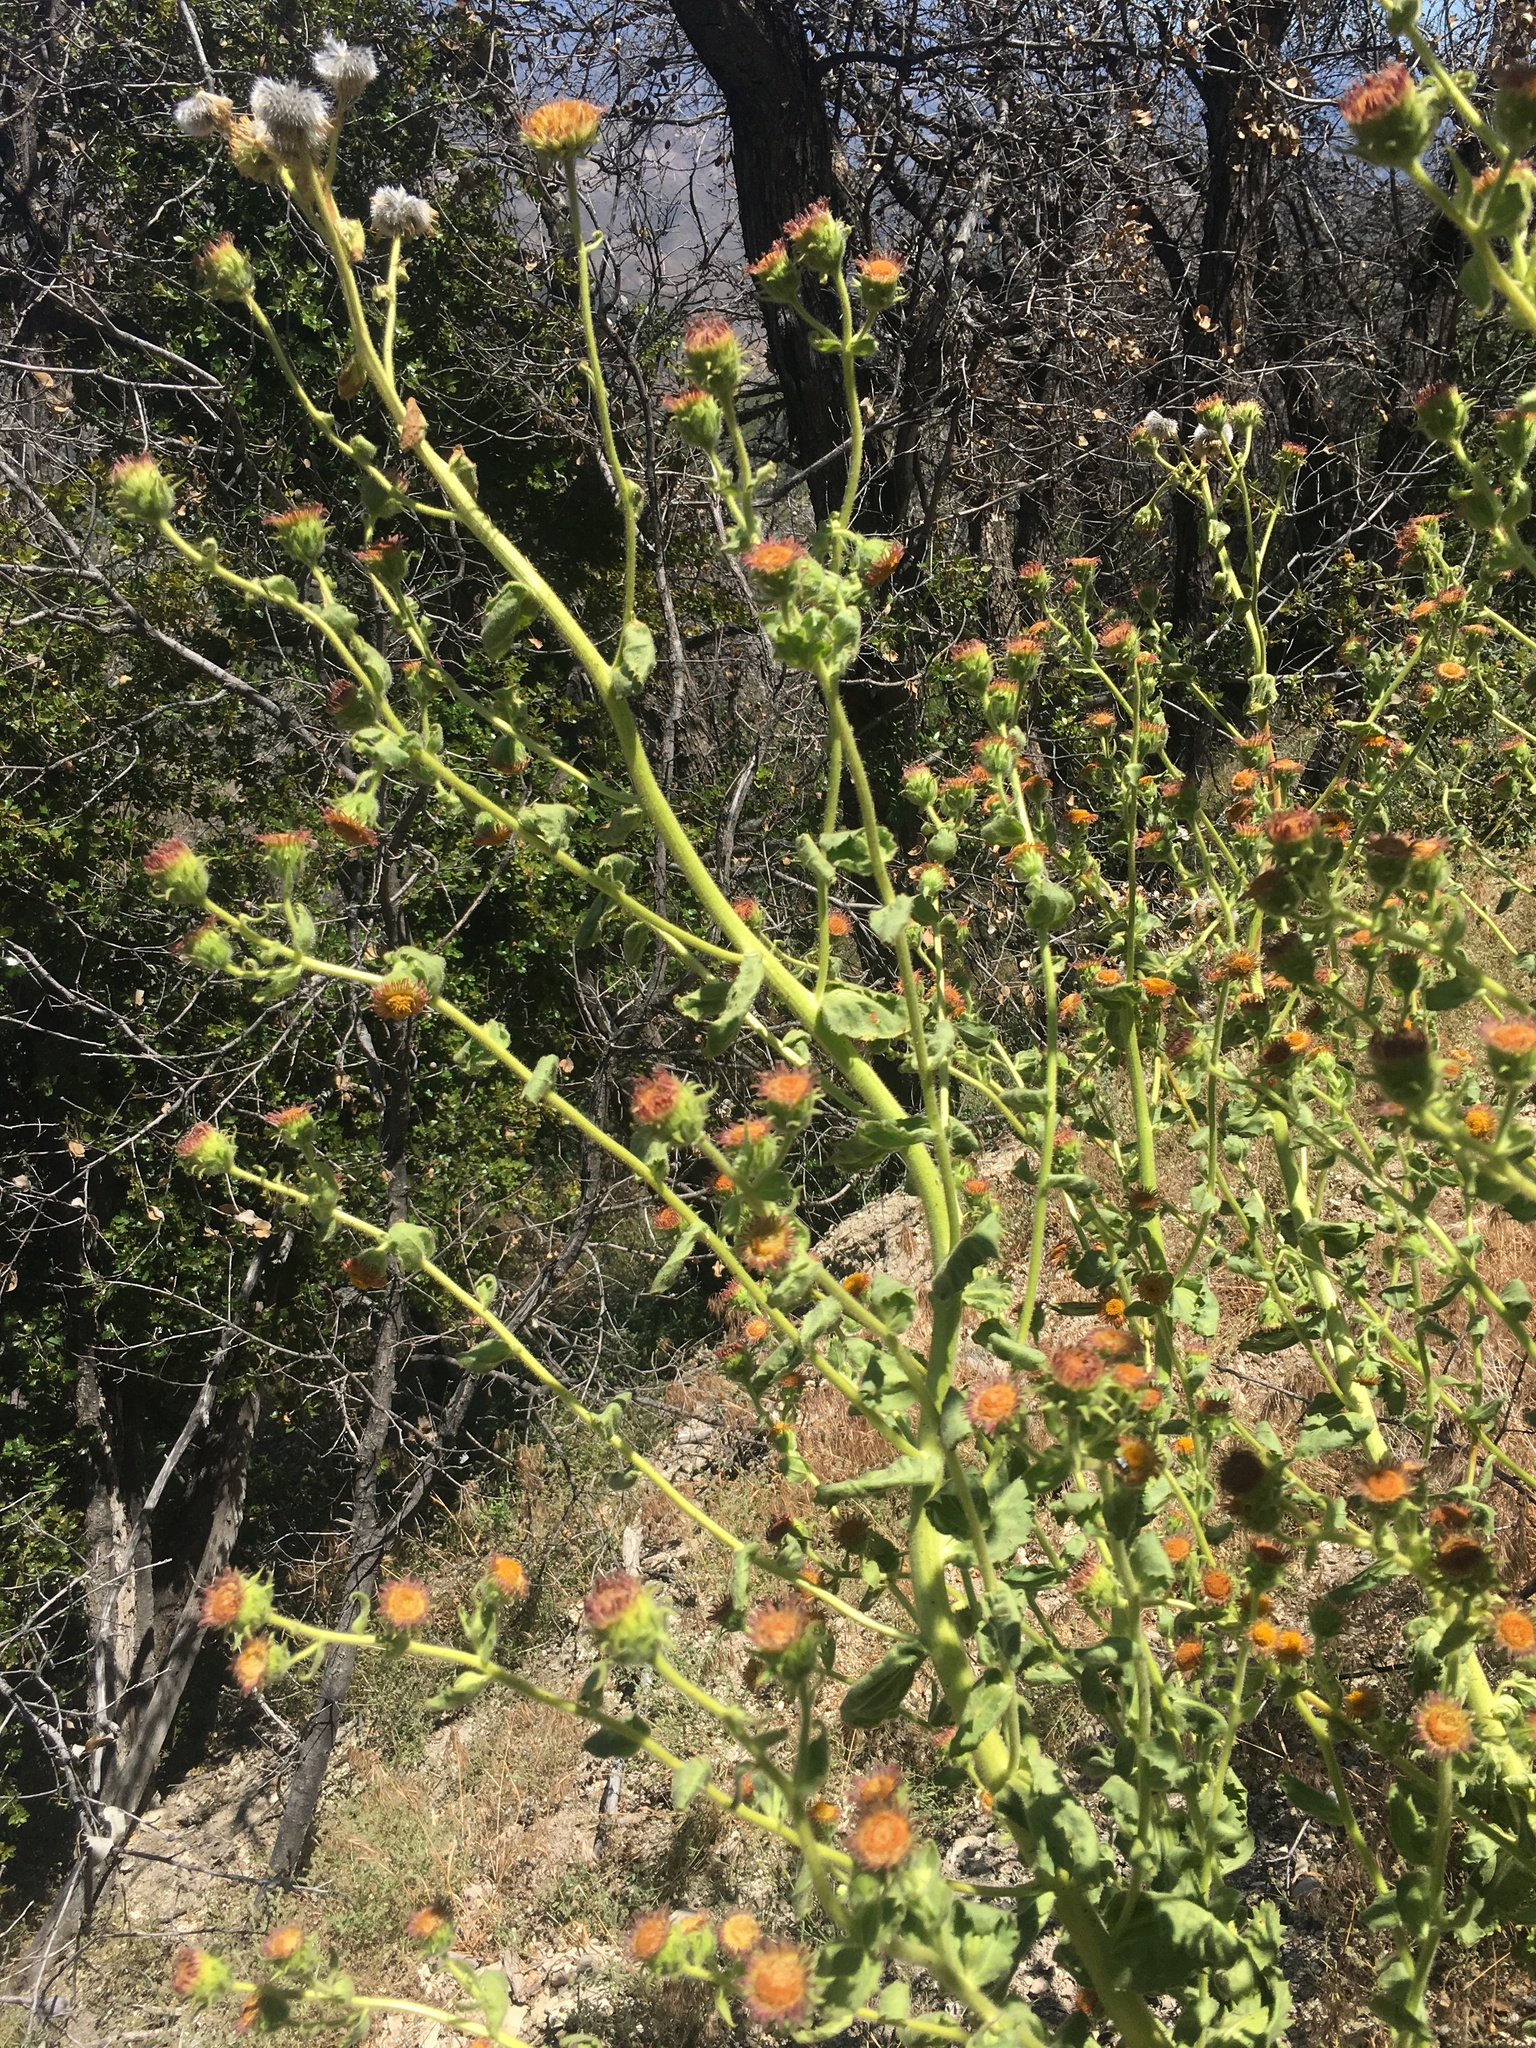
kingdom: Plantae
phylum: Tracheophyta
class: Magnoliopsida
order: Asterales
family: Asteraceae
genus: Hulsea
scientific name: Hulsea heterochroma
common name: Redray alpinegold
